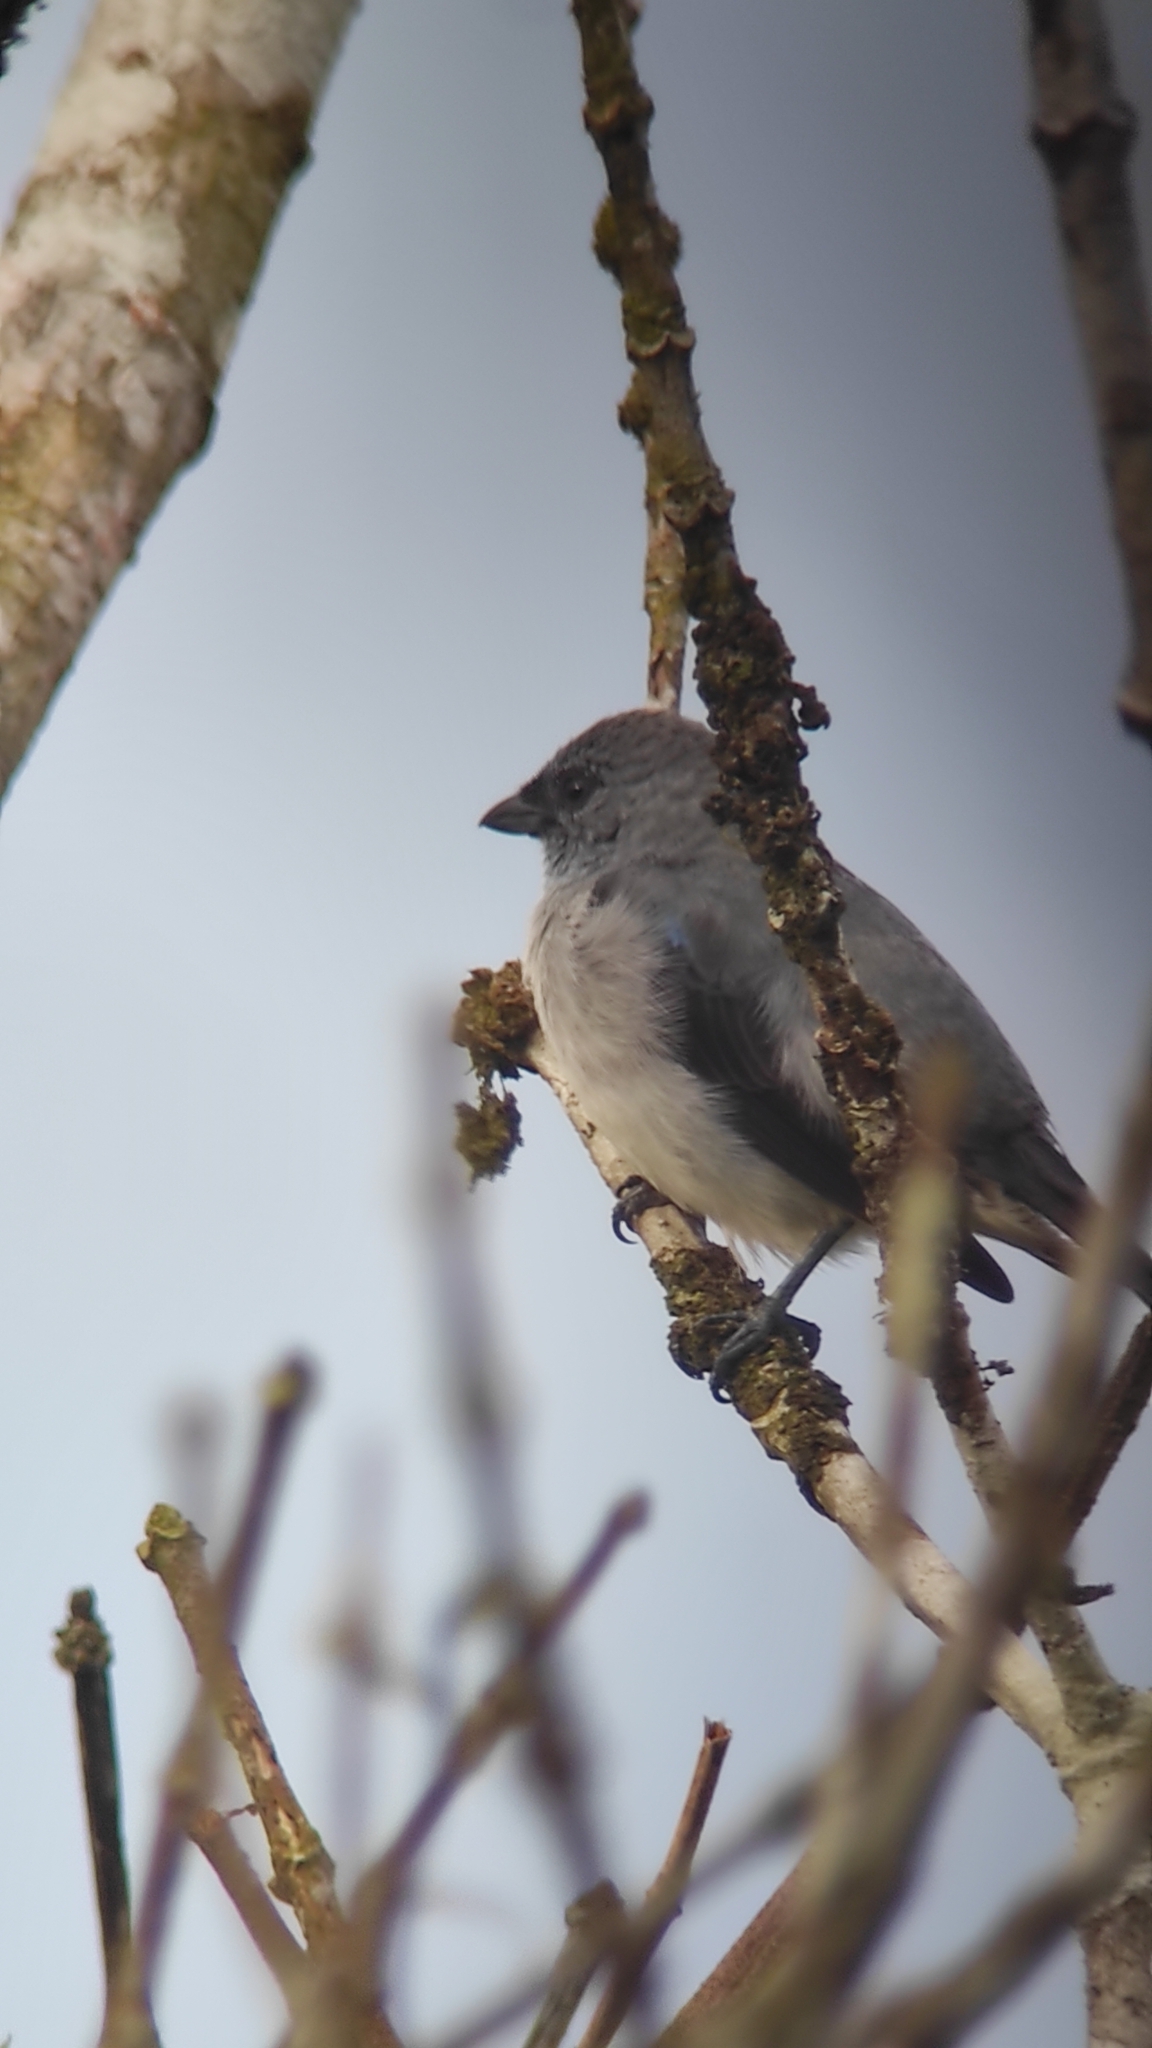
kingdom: Animalia
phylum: Chordata
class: Aves
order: Passeriformes
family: Thraupidae
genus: Tangara
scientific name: Tangara inornata
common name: Plain-colored tanager
